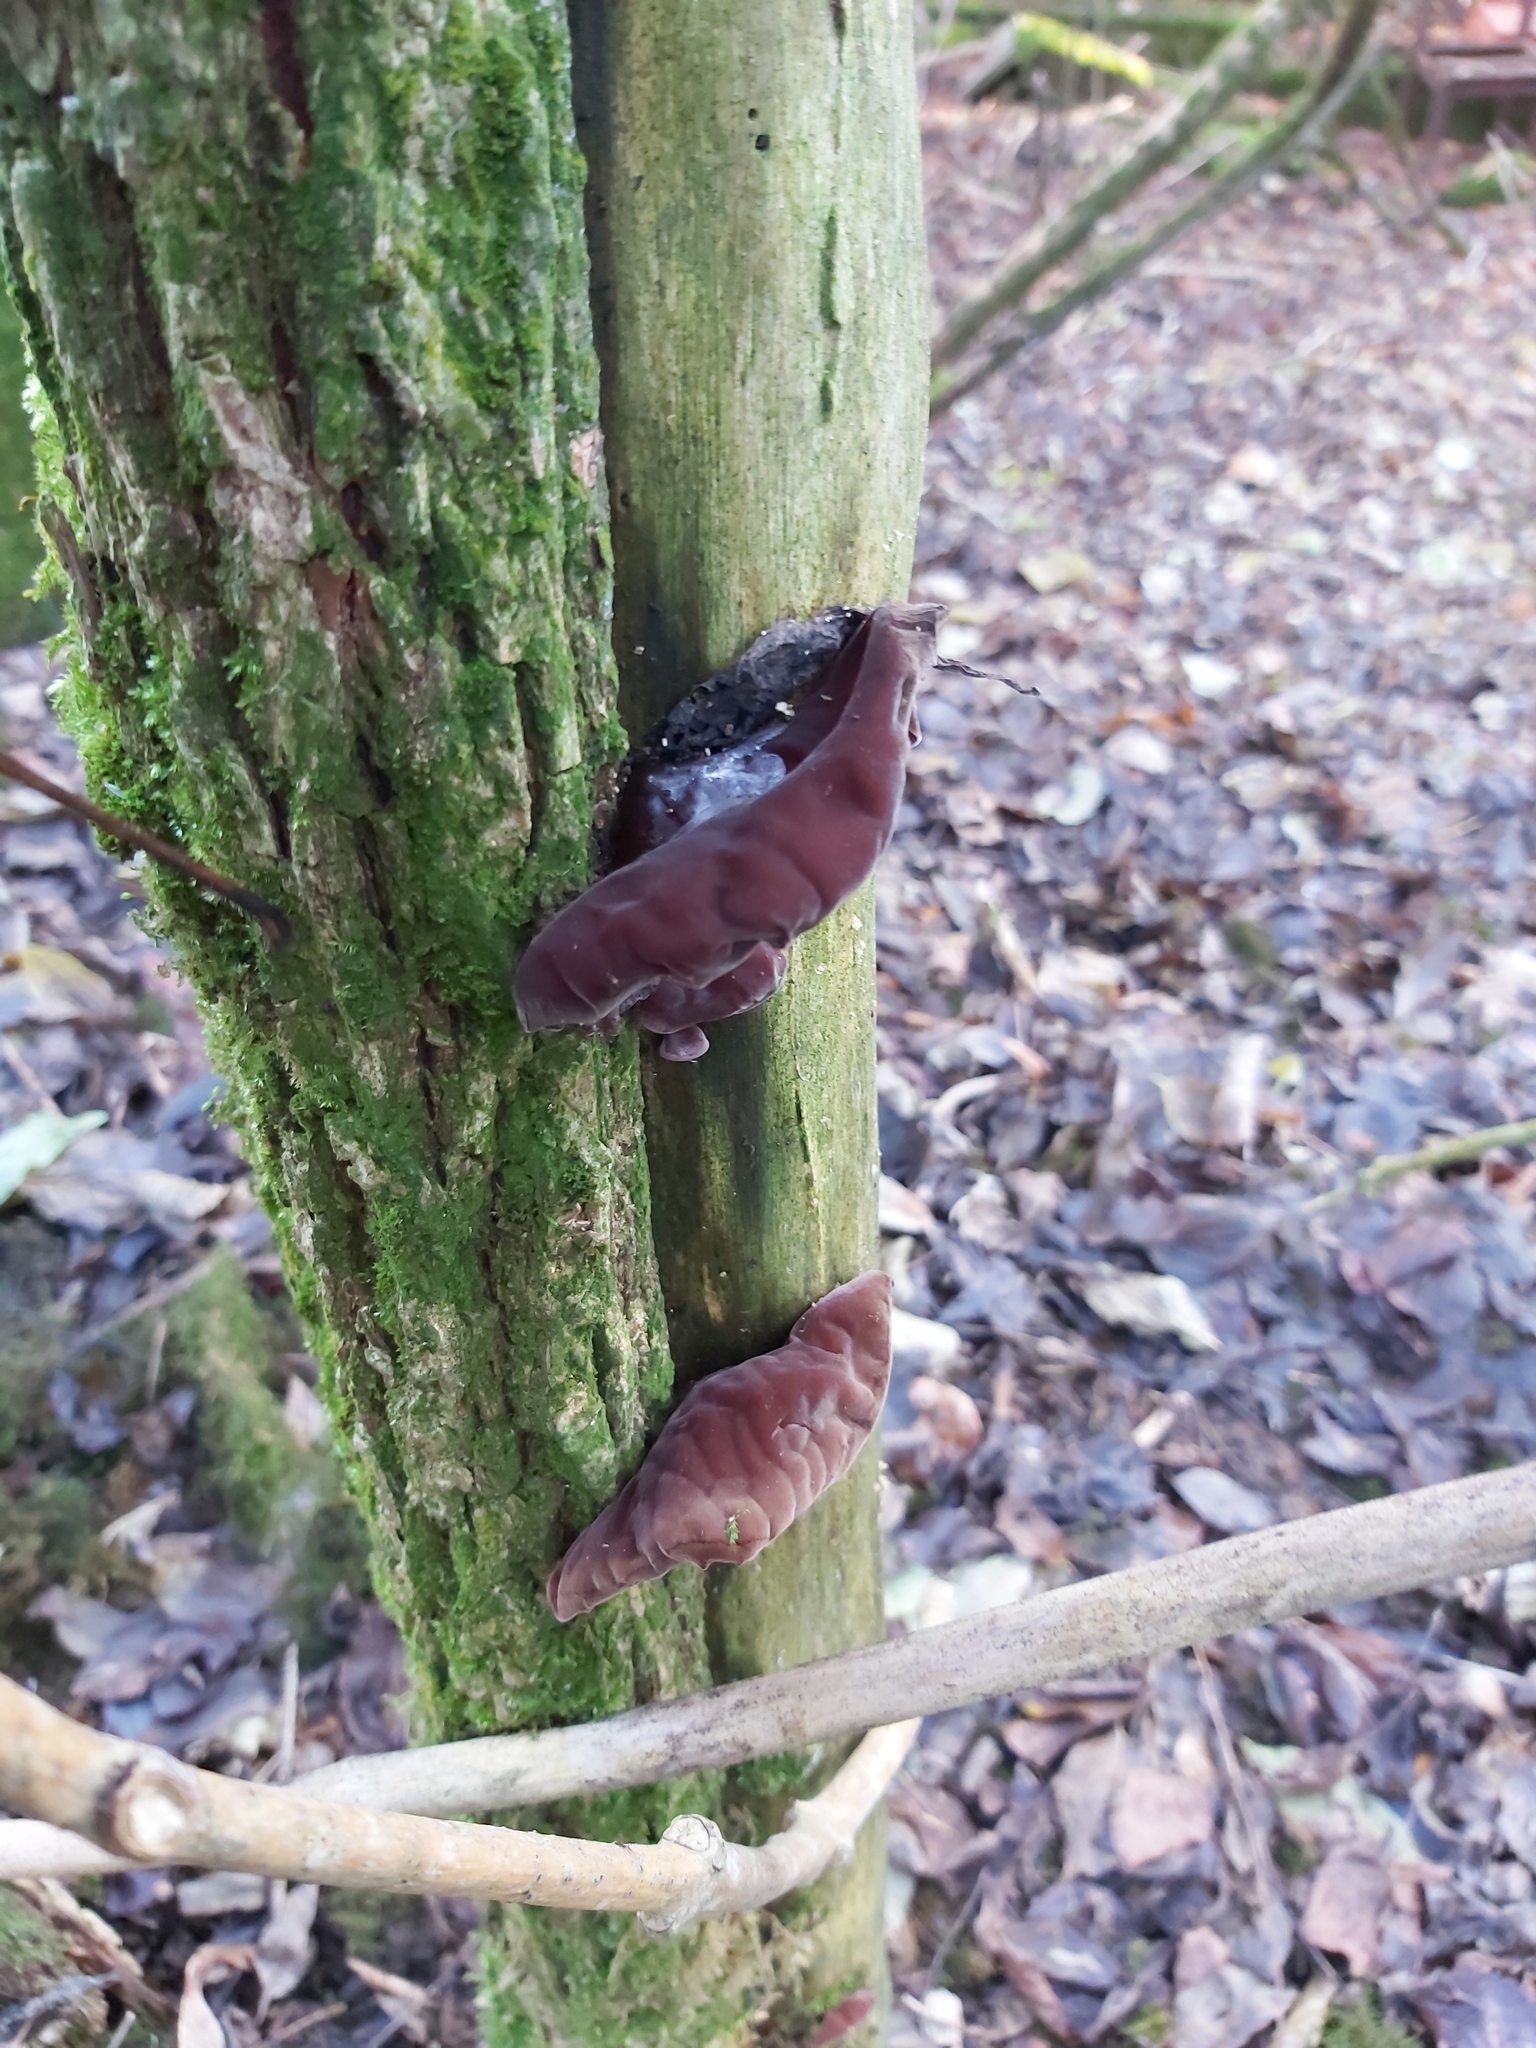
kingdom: Fungi
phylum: Basidiomycota
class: Agaricomycetes
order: Auriculariales
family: Auriculariaceae
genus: Auricularia
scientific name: Auricularia auricula-judae
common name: Jelly ear
